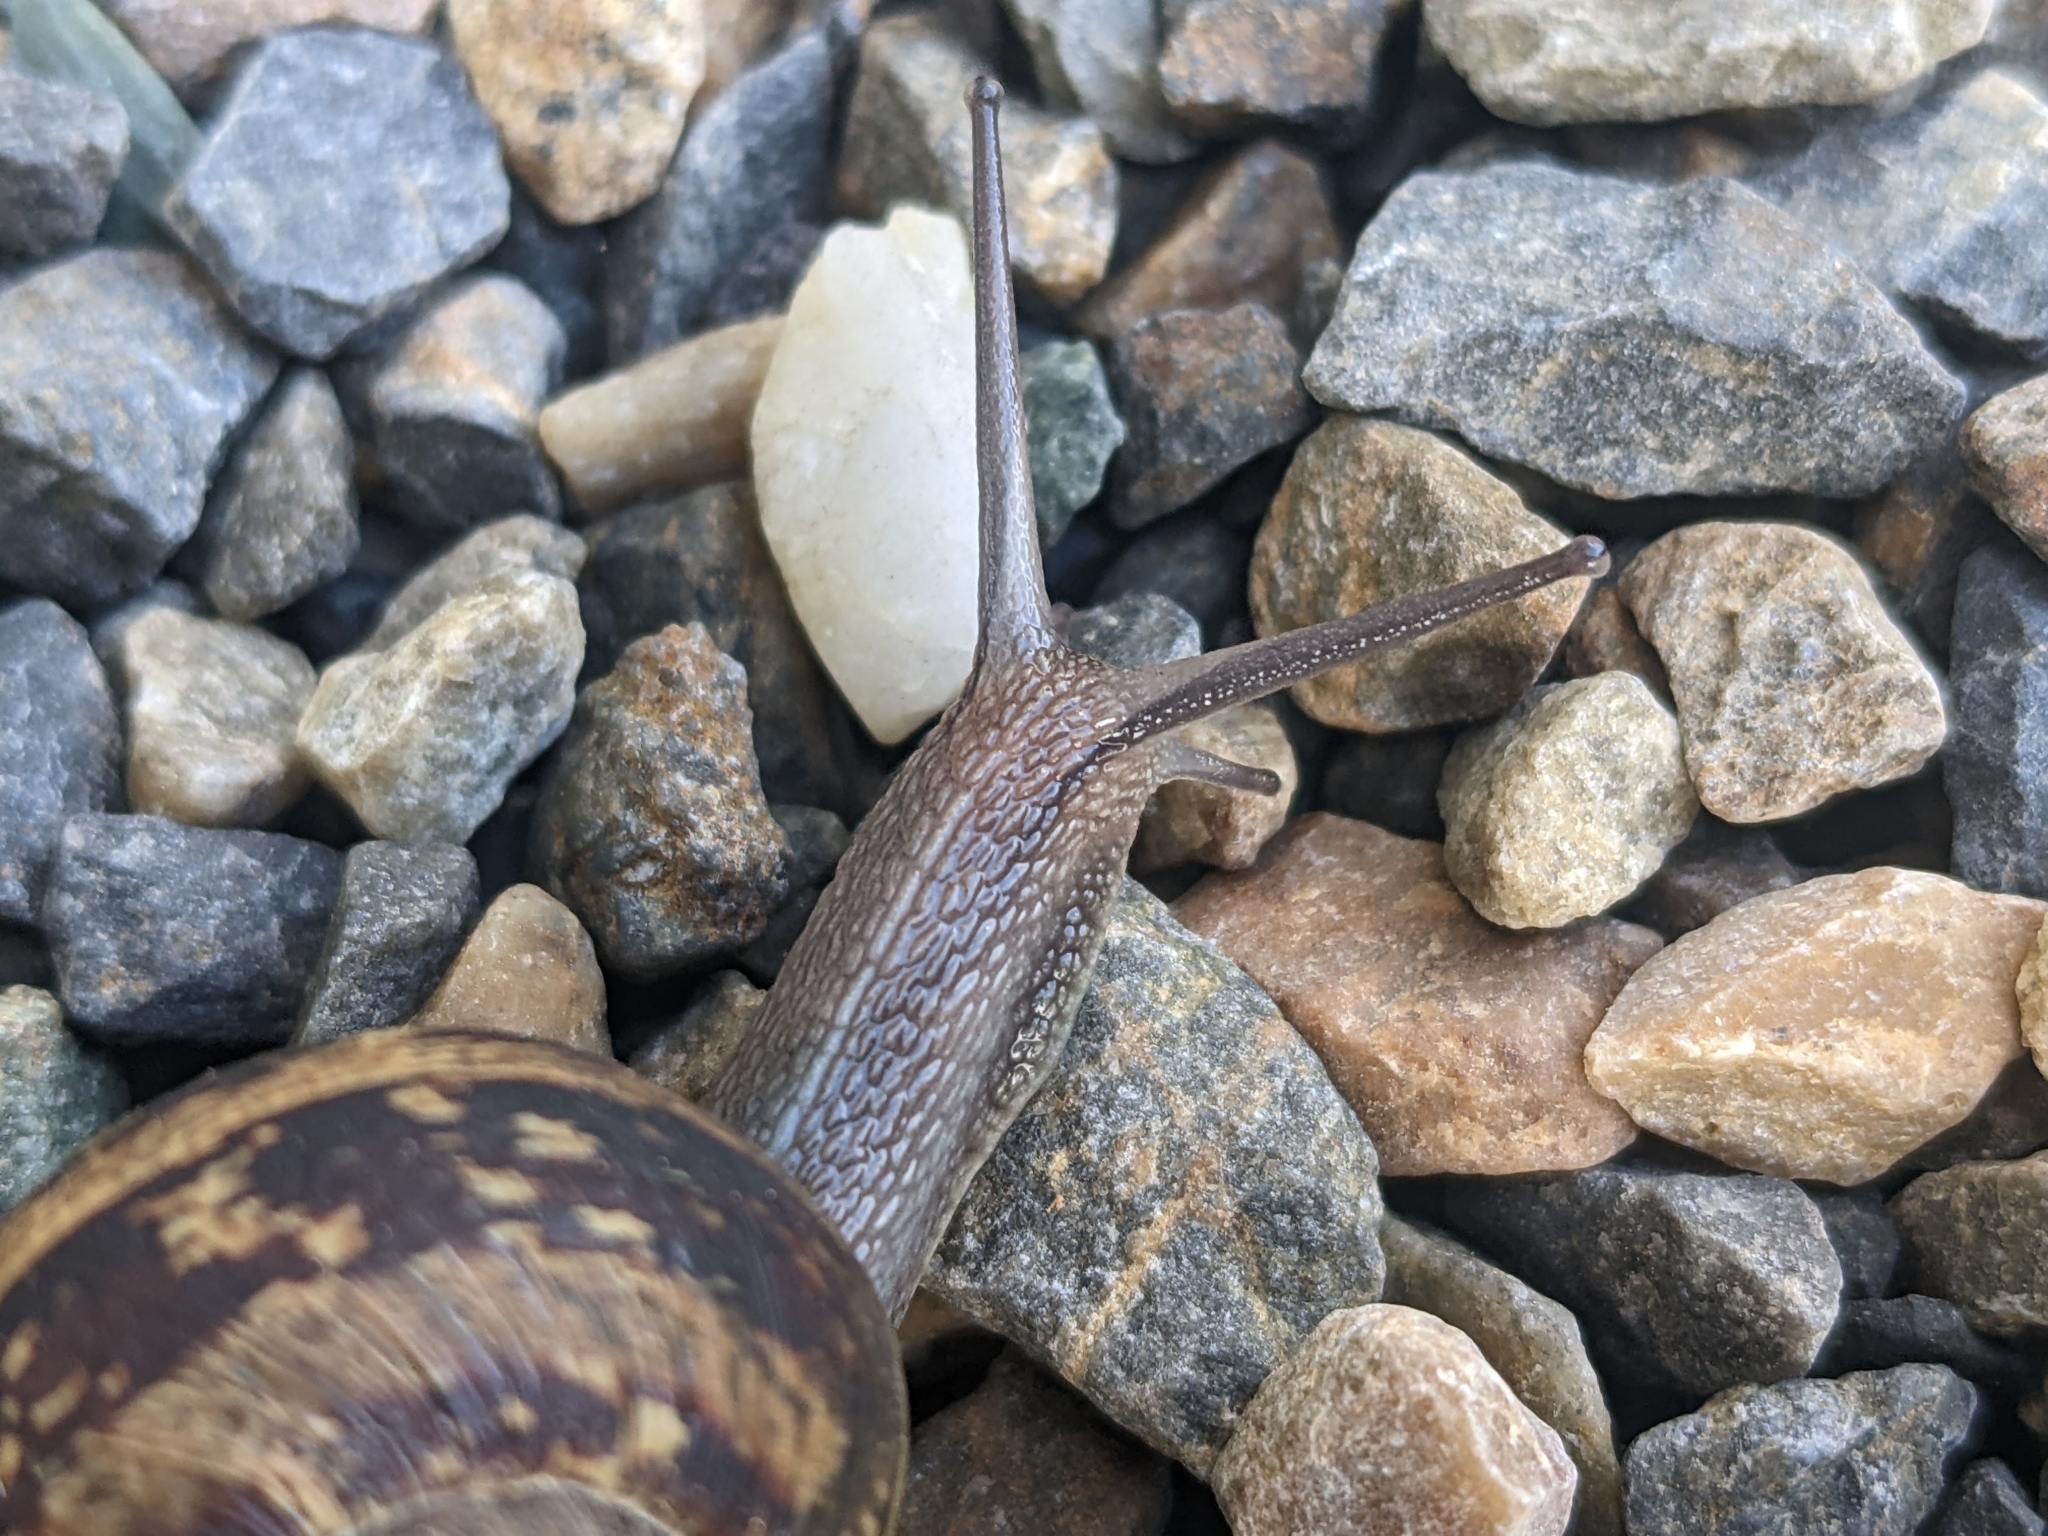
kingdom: Animalia
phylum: Mollusca
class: Gastropoda
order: Stylommatophora
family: Helicidae
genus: Cornu
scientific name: Cornu aspersum
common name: Brown garden snail
